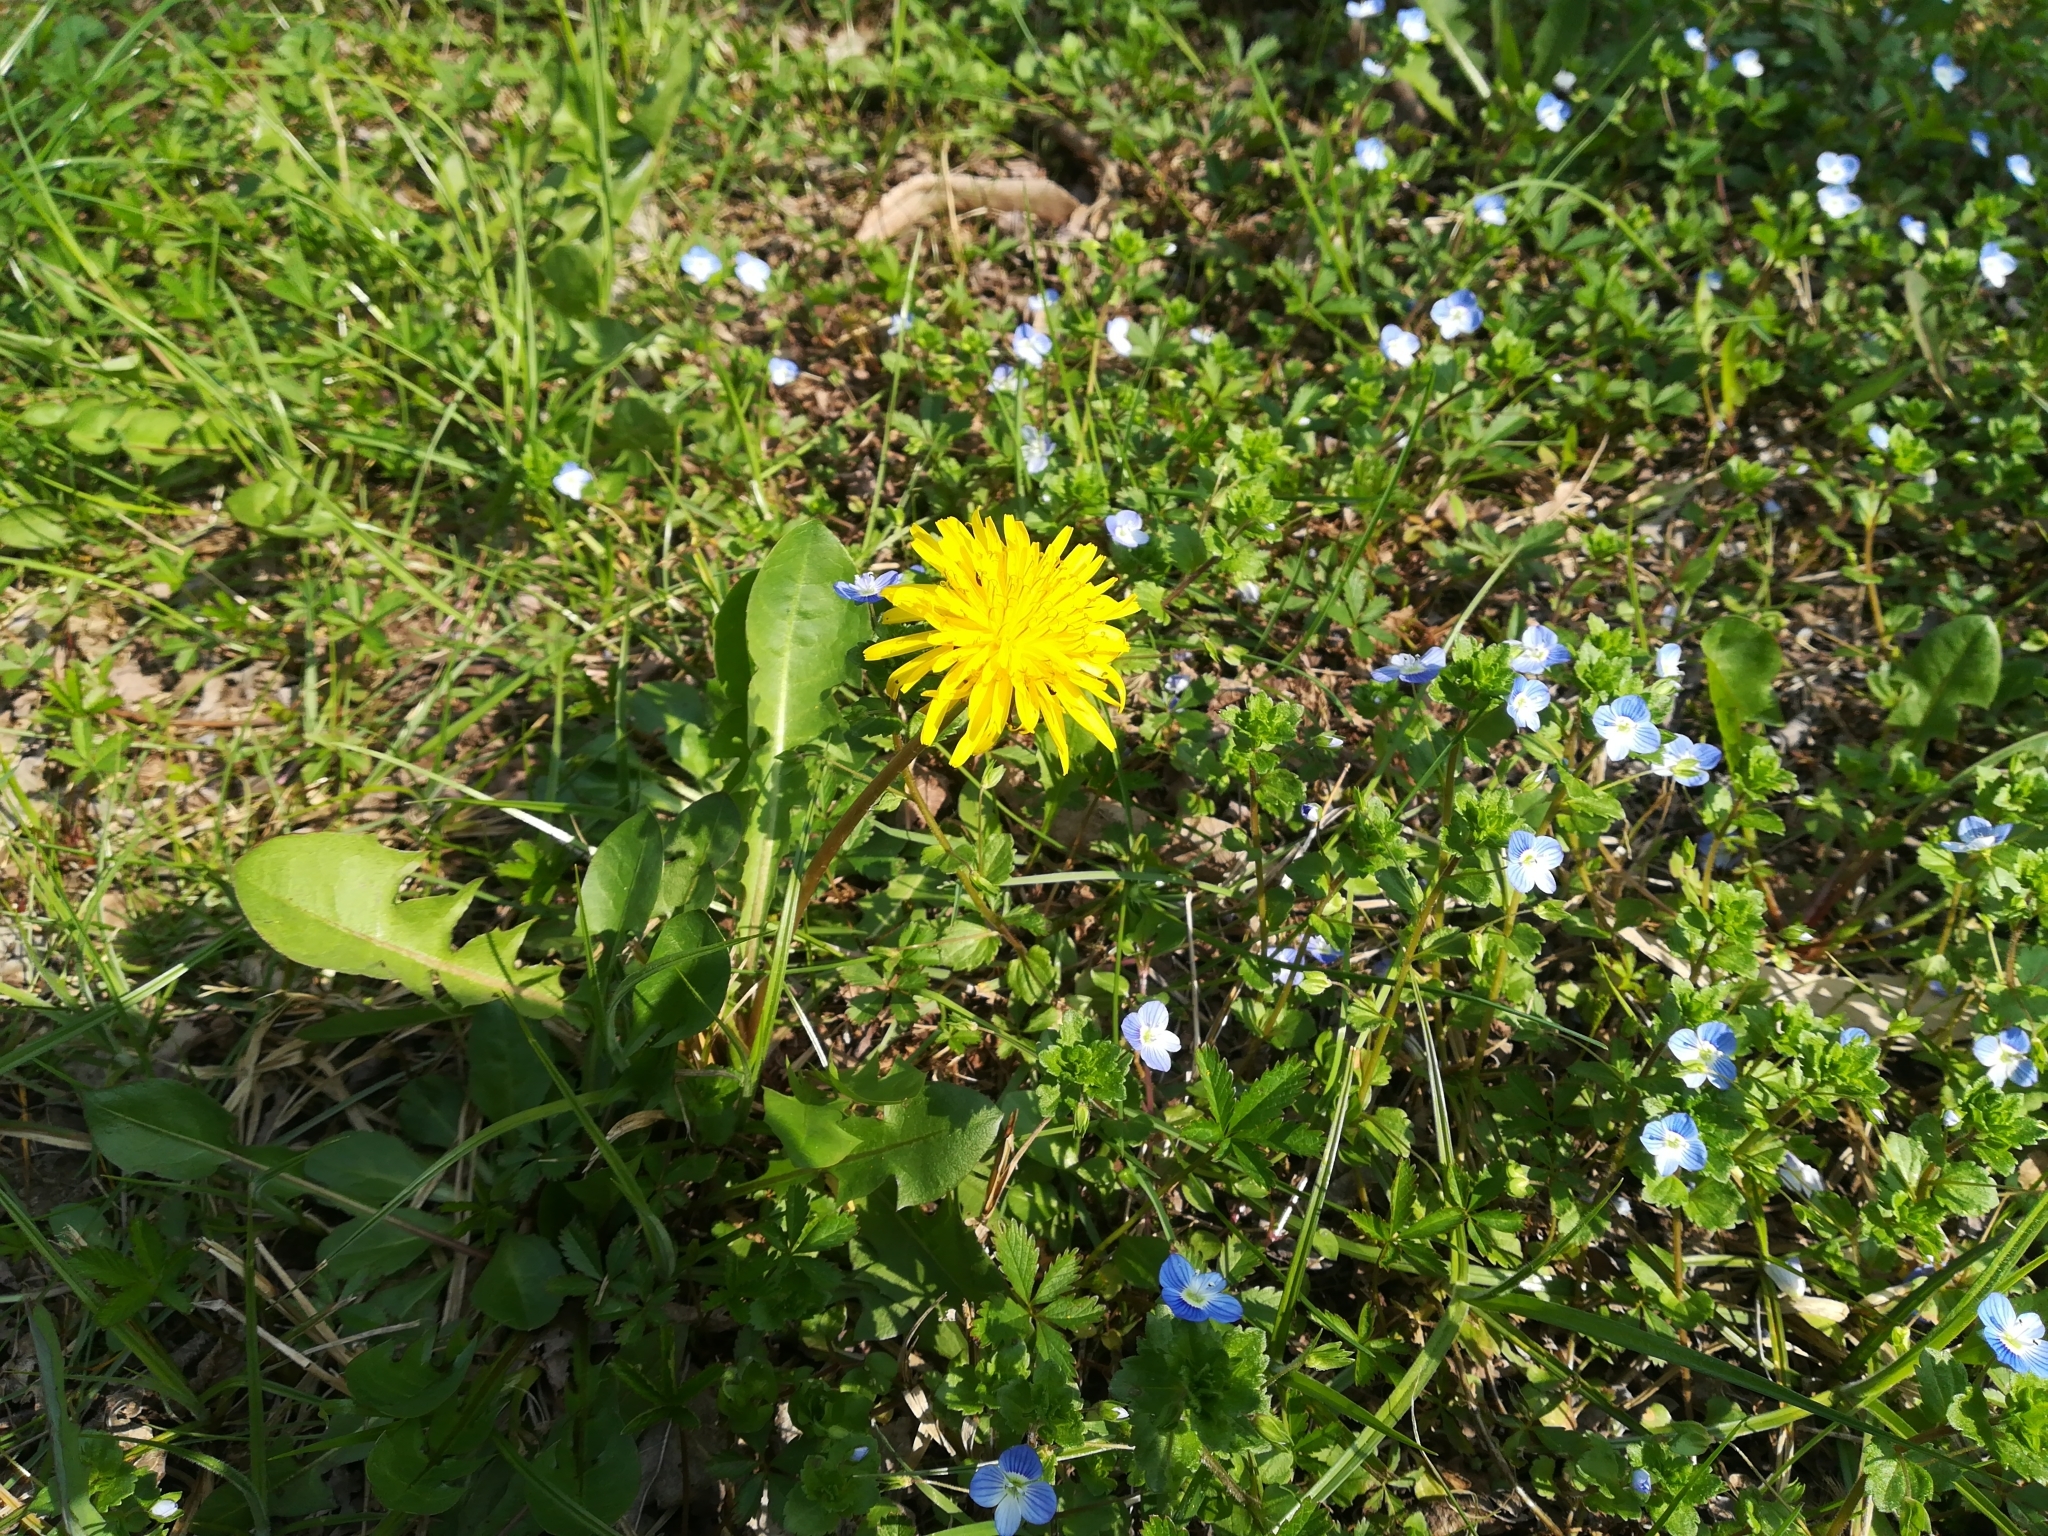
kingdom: Plantae
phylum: Tracheophyta
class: Magnoliopsida
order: Asterales
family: Asteraceae
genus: Taraxacum
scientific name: Taraxacum officinale
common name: Common dandelion
